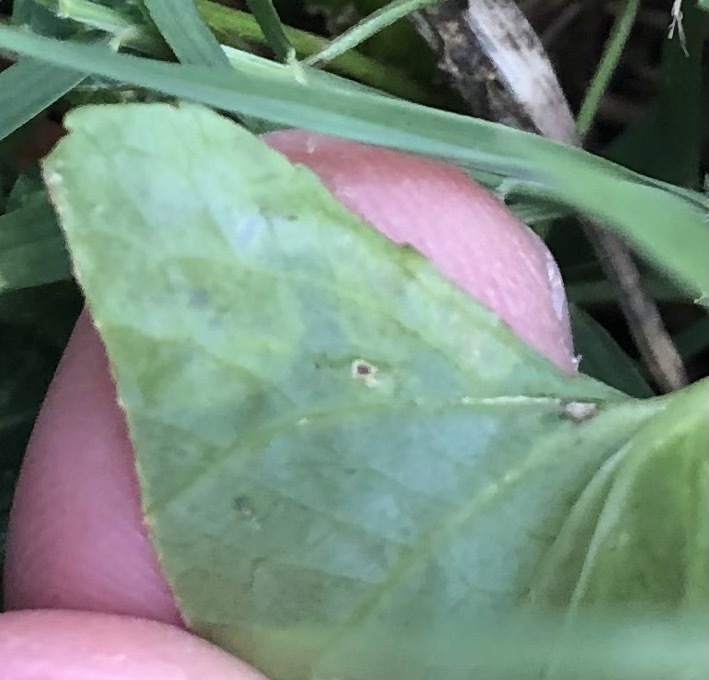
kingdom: Animalia
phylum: Arthropoda
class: Insecta
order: Diptera
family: Agromyzidae
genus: Liriomyza
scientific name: Liriomyza violivora
